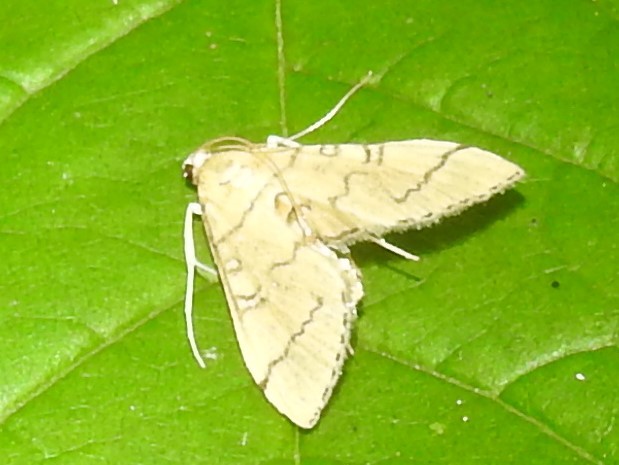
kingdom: Animalia
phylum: Arthropoda
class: Insecta
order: Lepidoptera
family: Crambidae
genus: Lamprosema
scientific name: Lamprosema Blepharomastix ranalis
